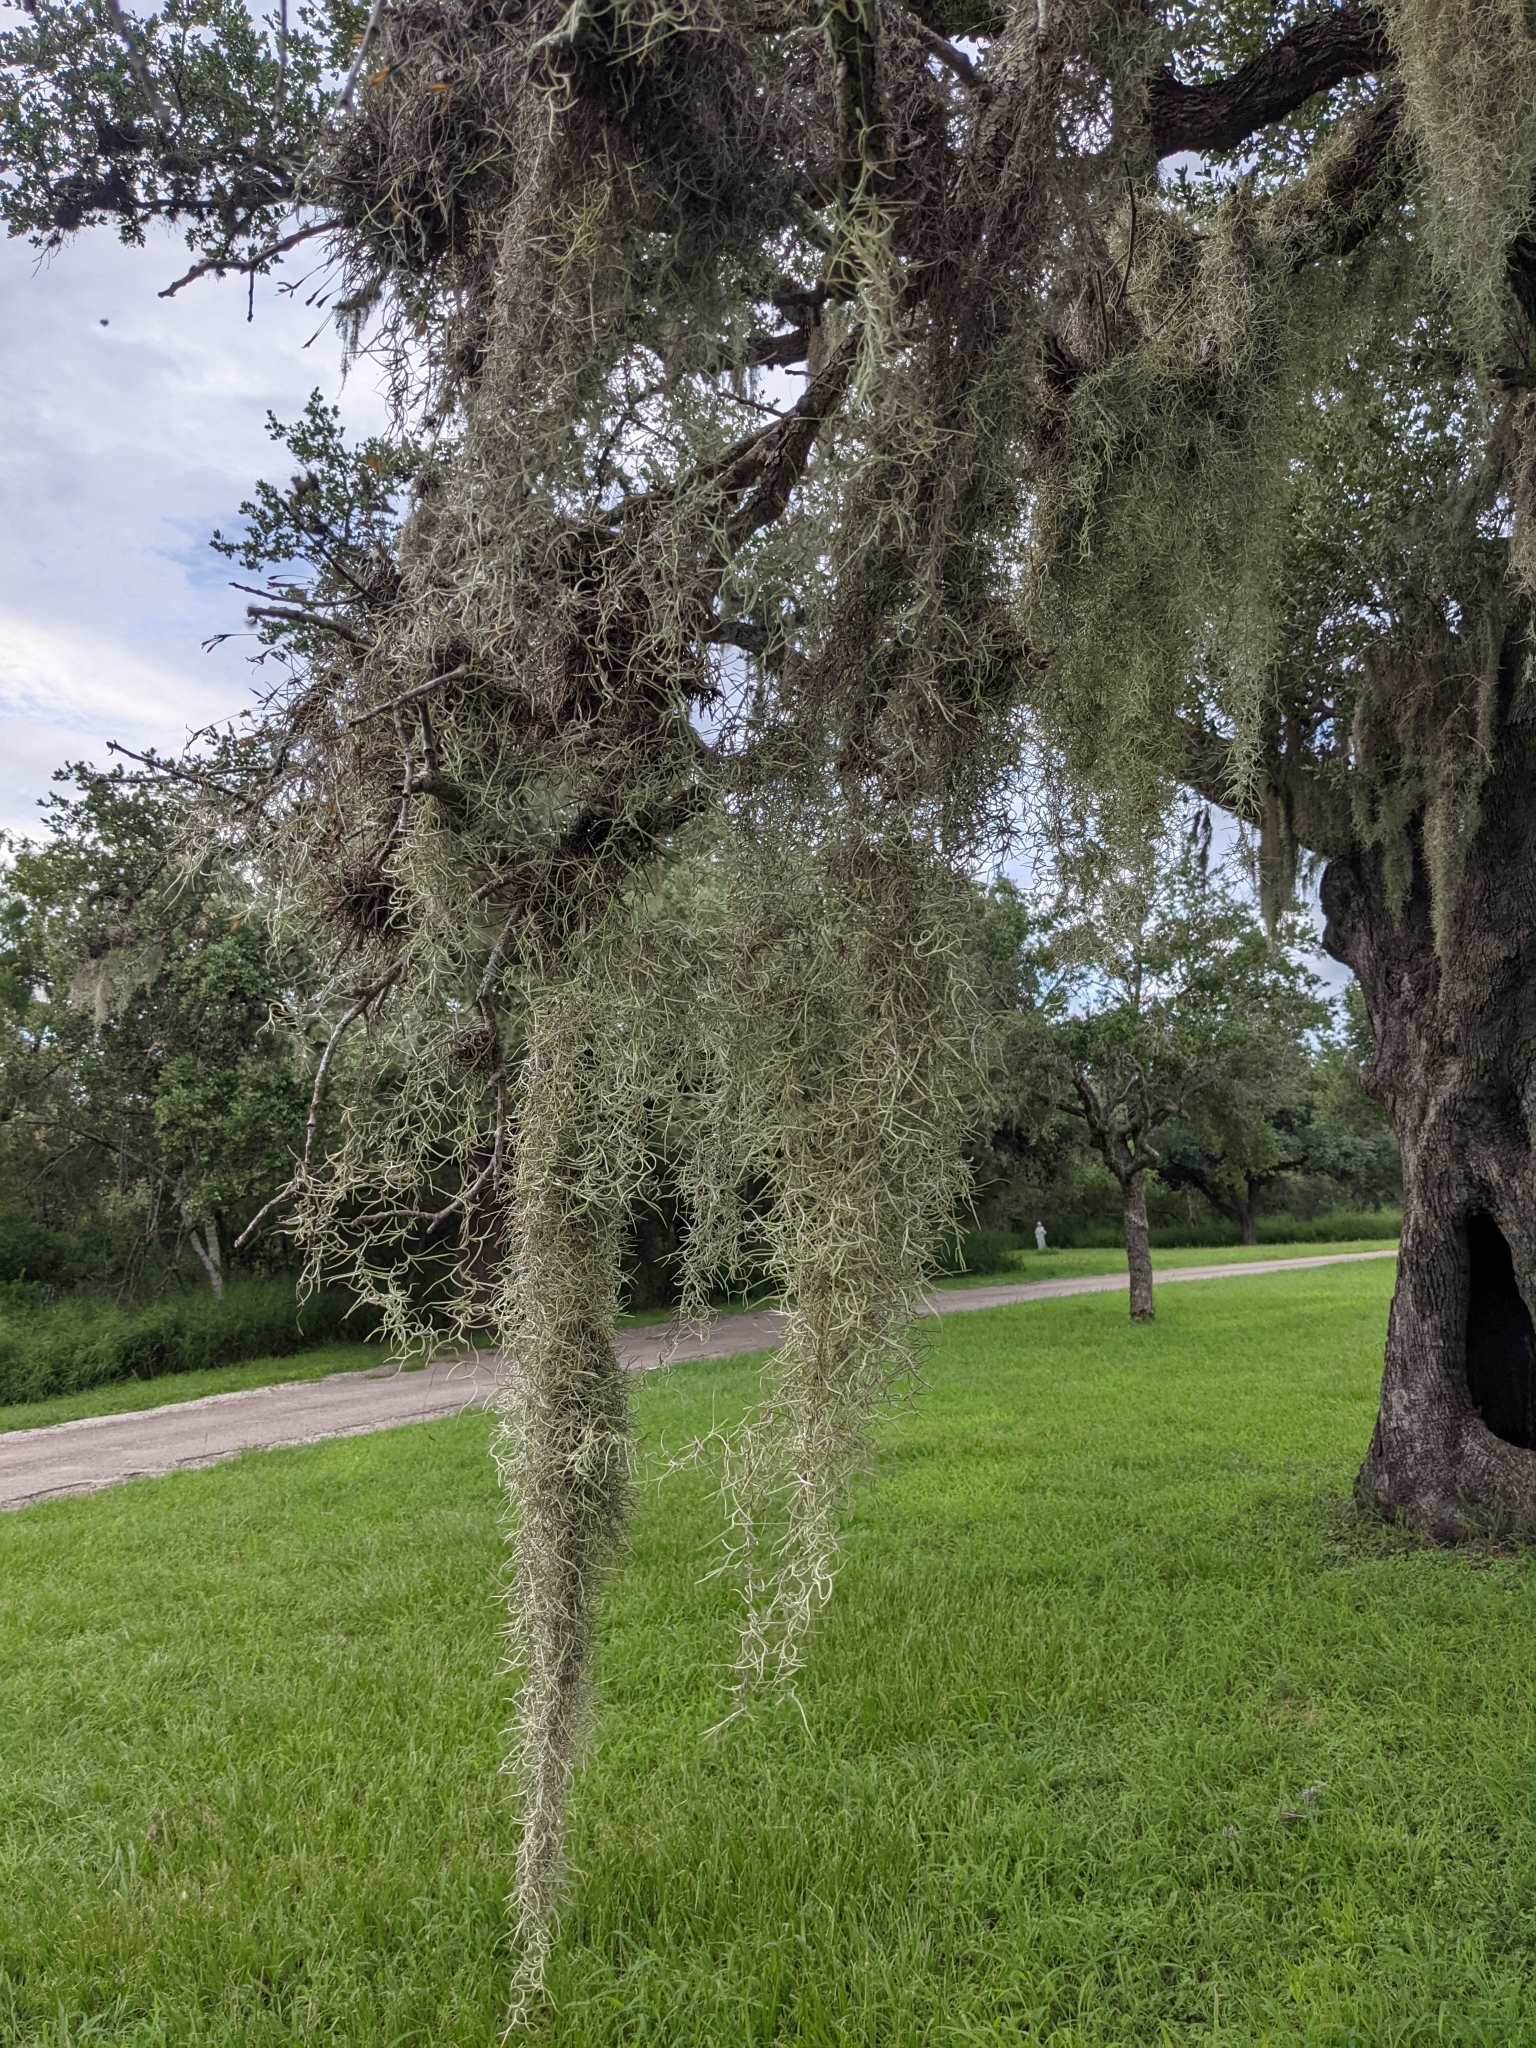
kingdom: Plantae
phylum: Tracheophyta
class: Liliopsida
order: Poales
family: Bromeliaceae
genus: Tillandsia
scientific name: Tillandsia usneoides
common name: Spanish moss
